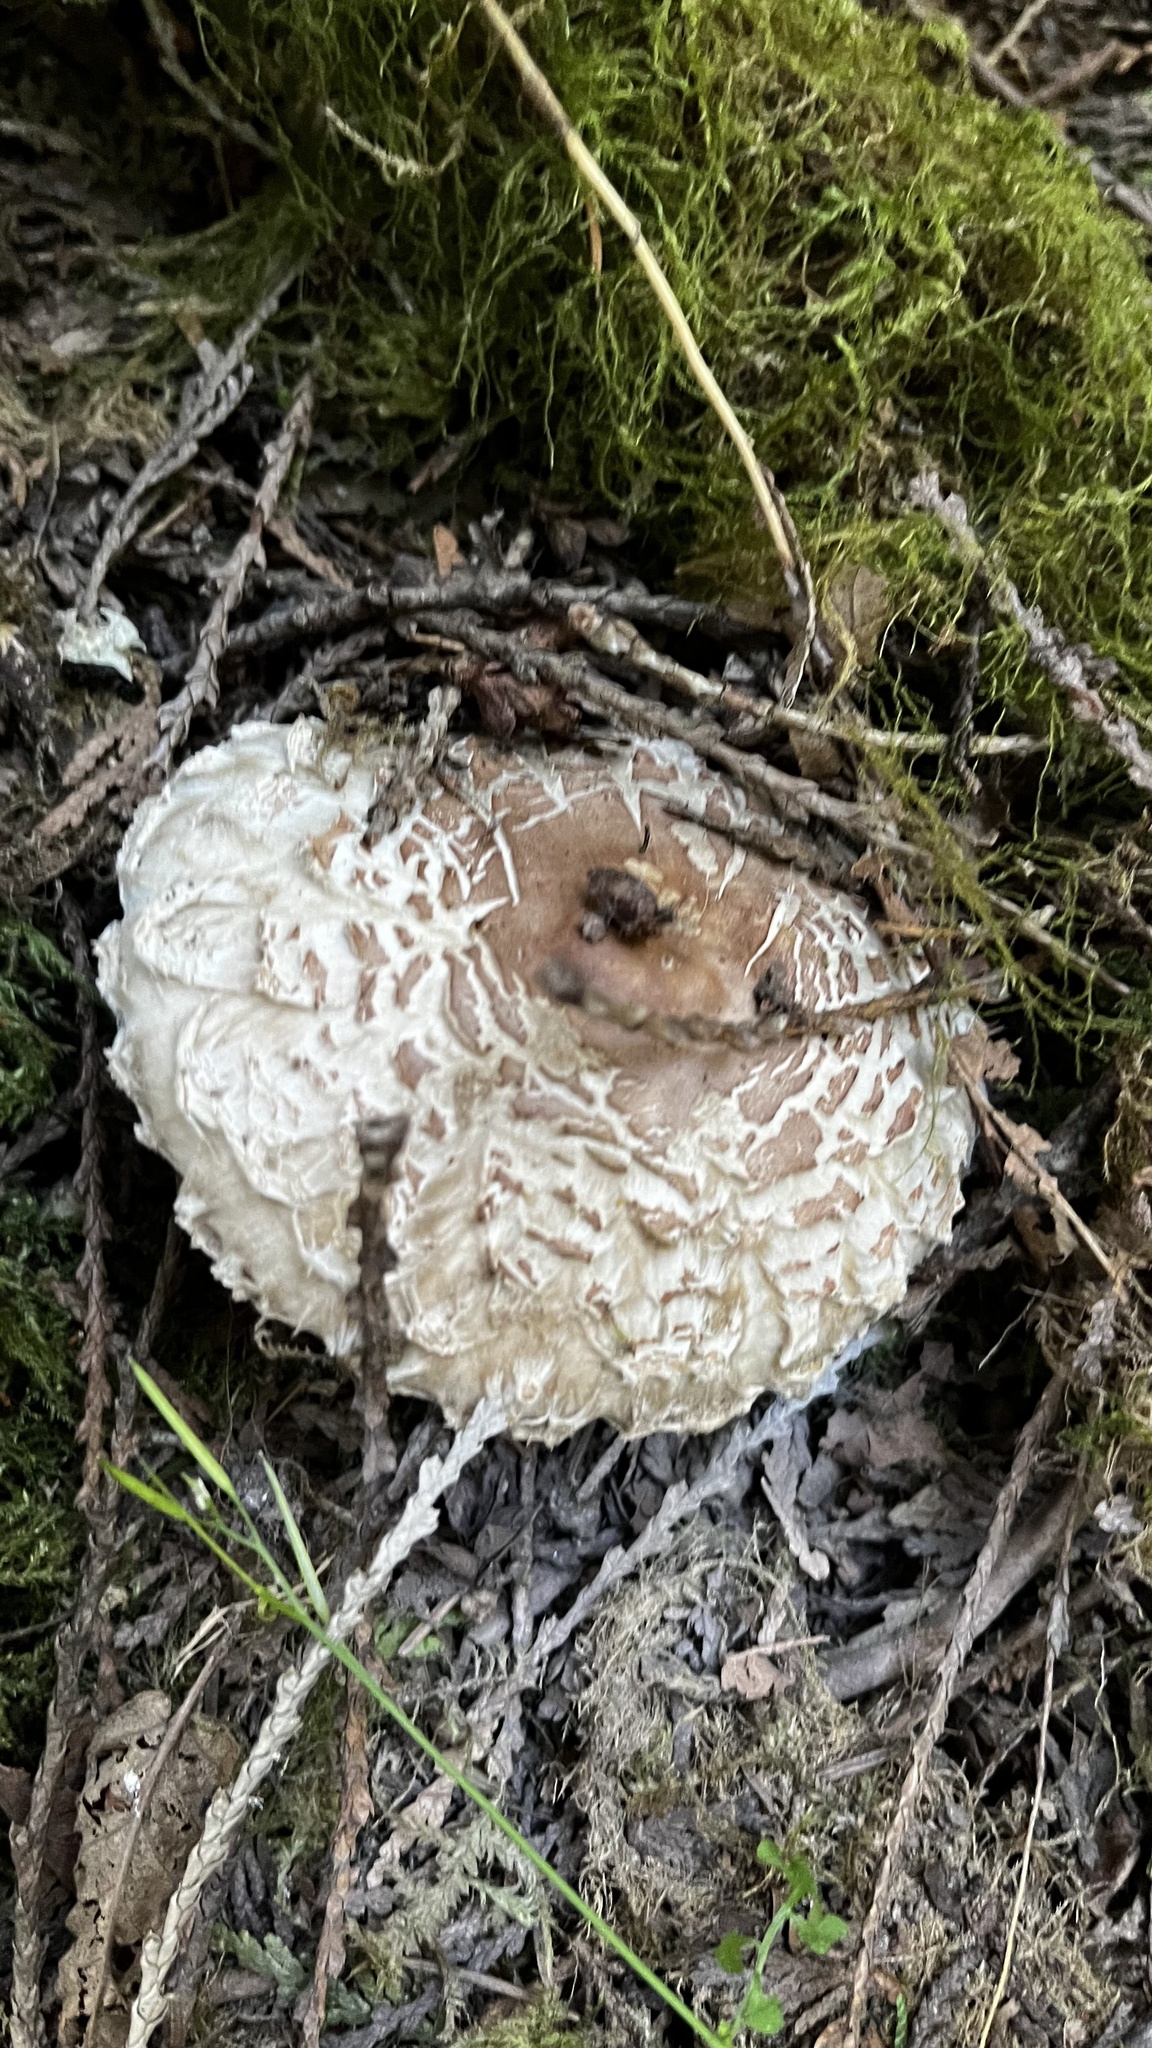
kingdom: Fungi
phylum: Basidiomycota
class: Agaricomycetes
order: Agaricales
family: Agaricaceae
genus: Chlorophyllum
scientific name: Chlorophyllum olivieri
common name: Conifer parasol
